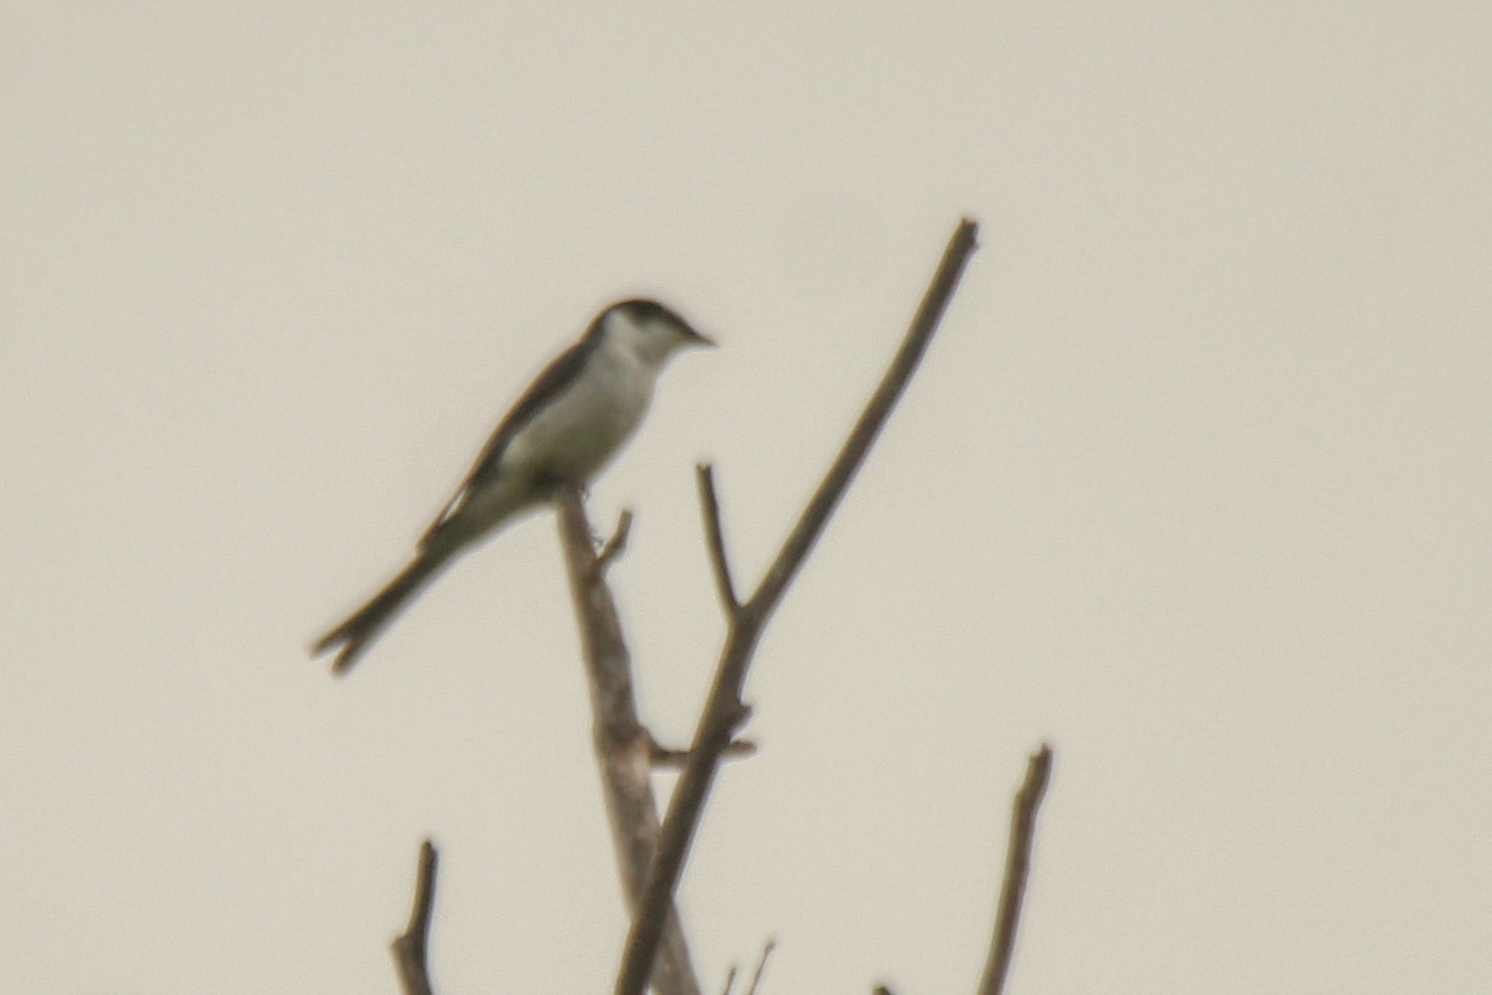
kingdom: Animalia
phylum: Chordata
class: Aves
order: Passeriformes
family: Campephagidae
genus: Pericrocotus
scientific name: Pericrocotus divaricatus
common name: Ashy minivet
